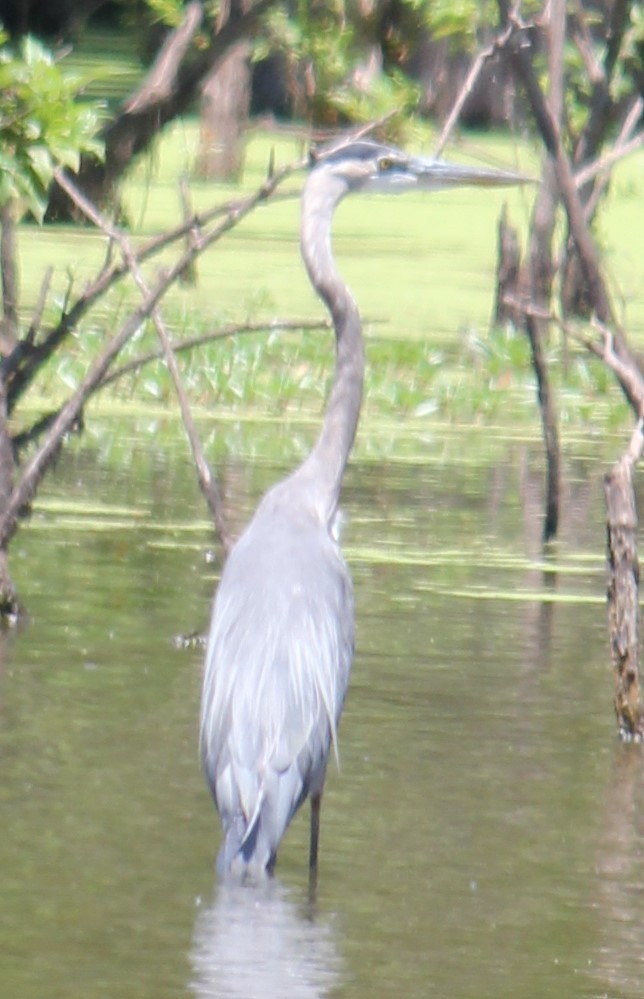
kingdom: Animalia
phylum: Chordata
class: Aves
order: Pelecaniformes
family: Ardeidae
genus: Ardea
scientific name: Ardea herodias
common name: Great blue heron
